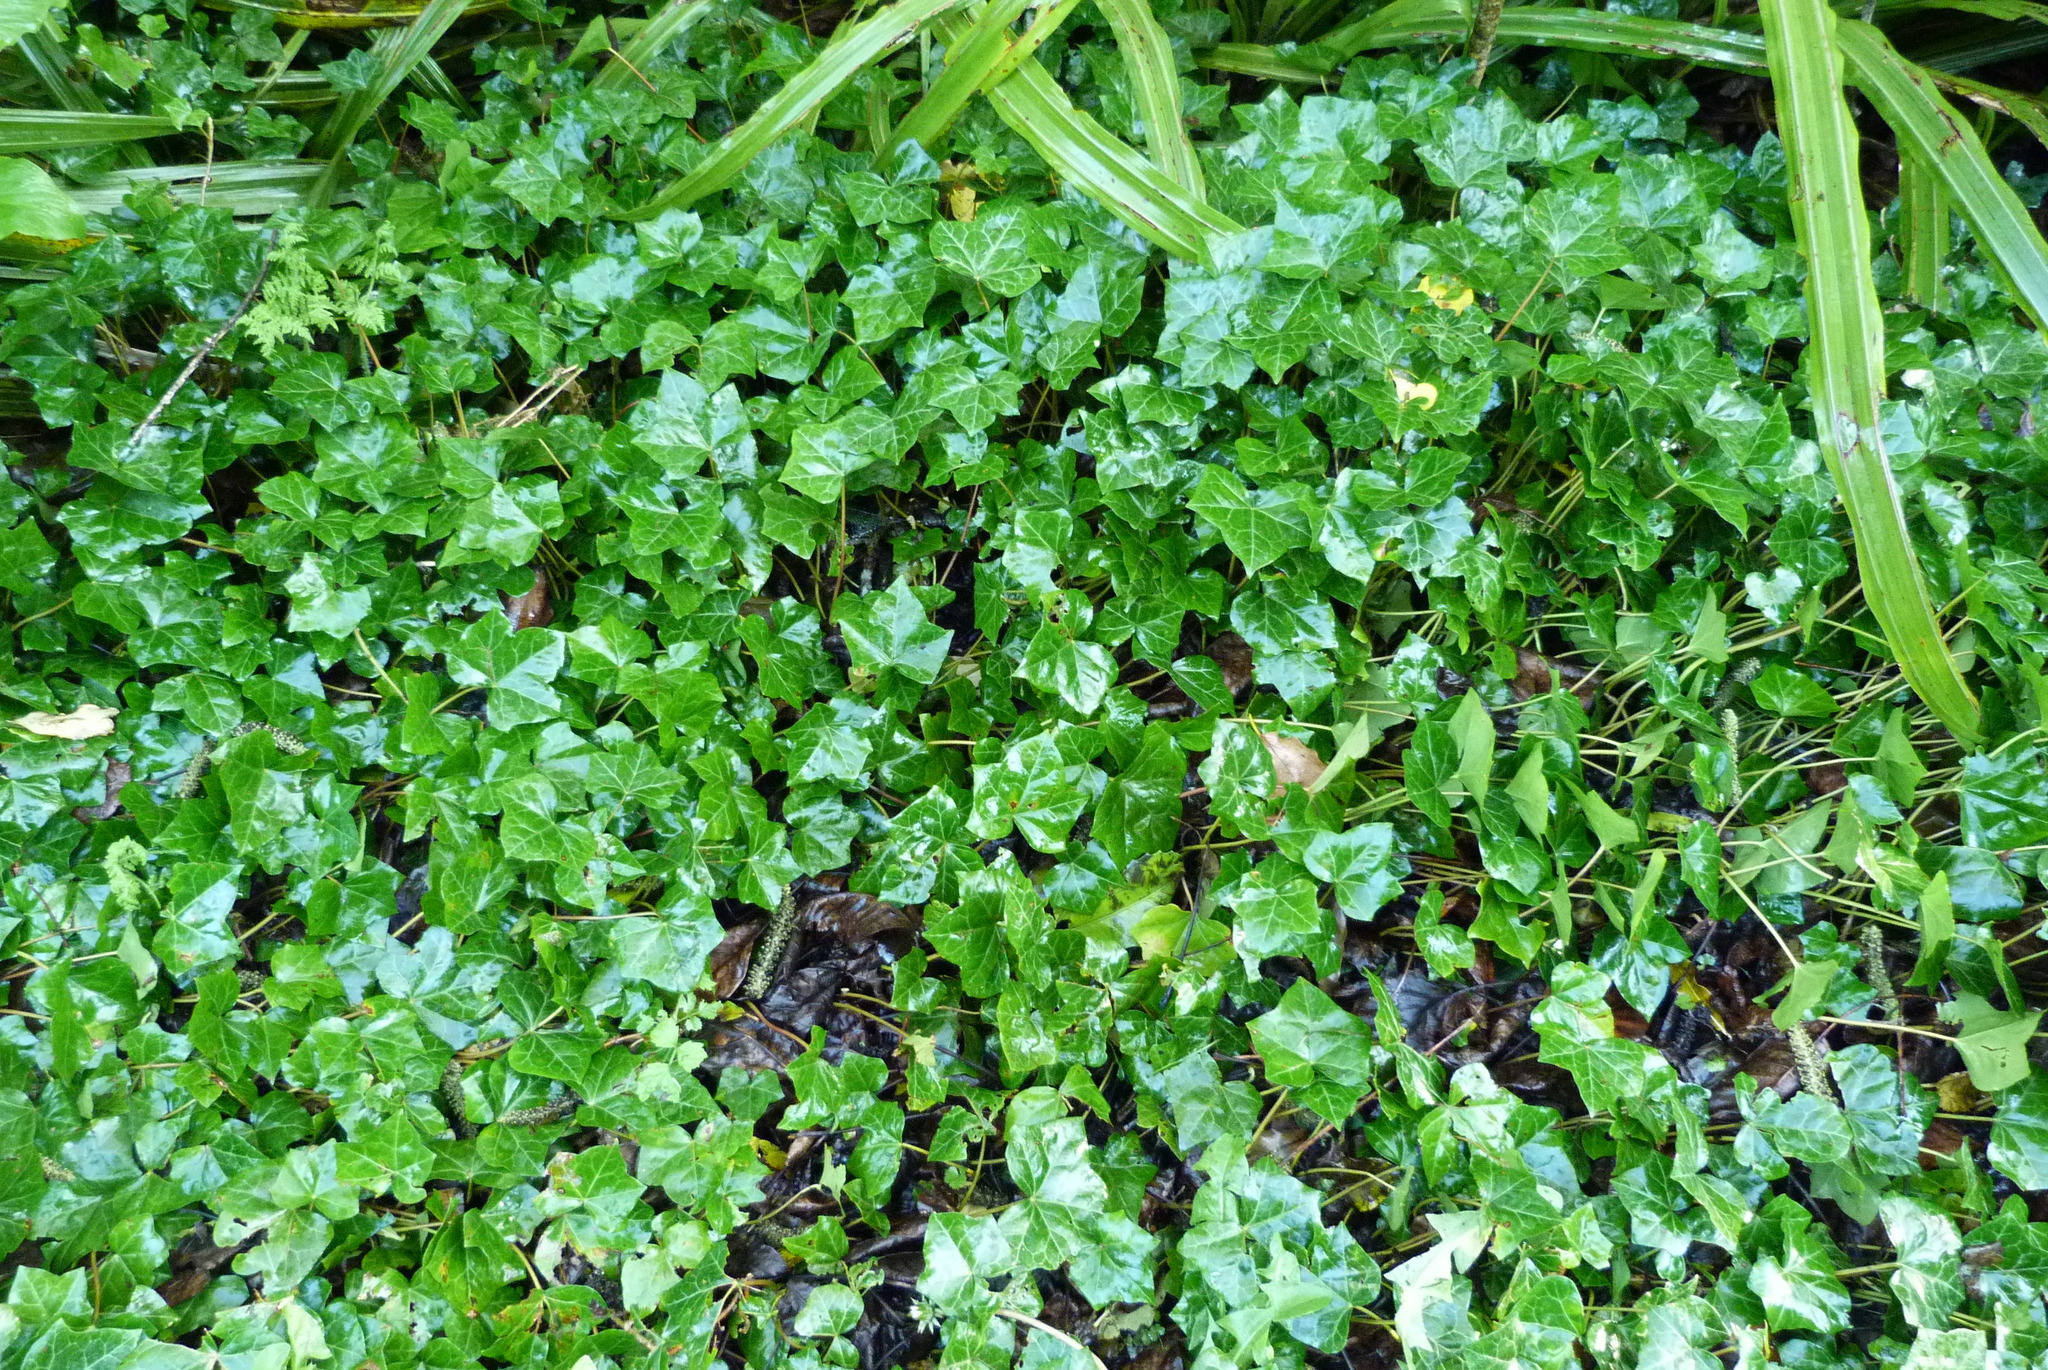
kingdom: Plantae
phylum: Tracheophyta
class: Magnoliopsida
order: Apiales
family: Araliaceae
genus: Hedera
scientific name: Hedera helix
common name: Ivy
